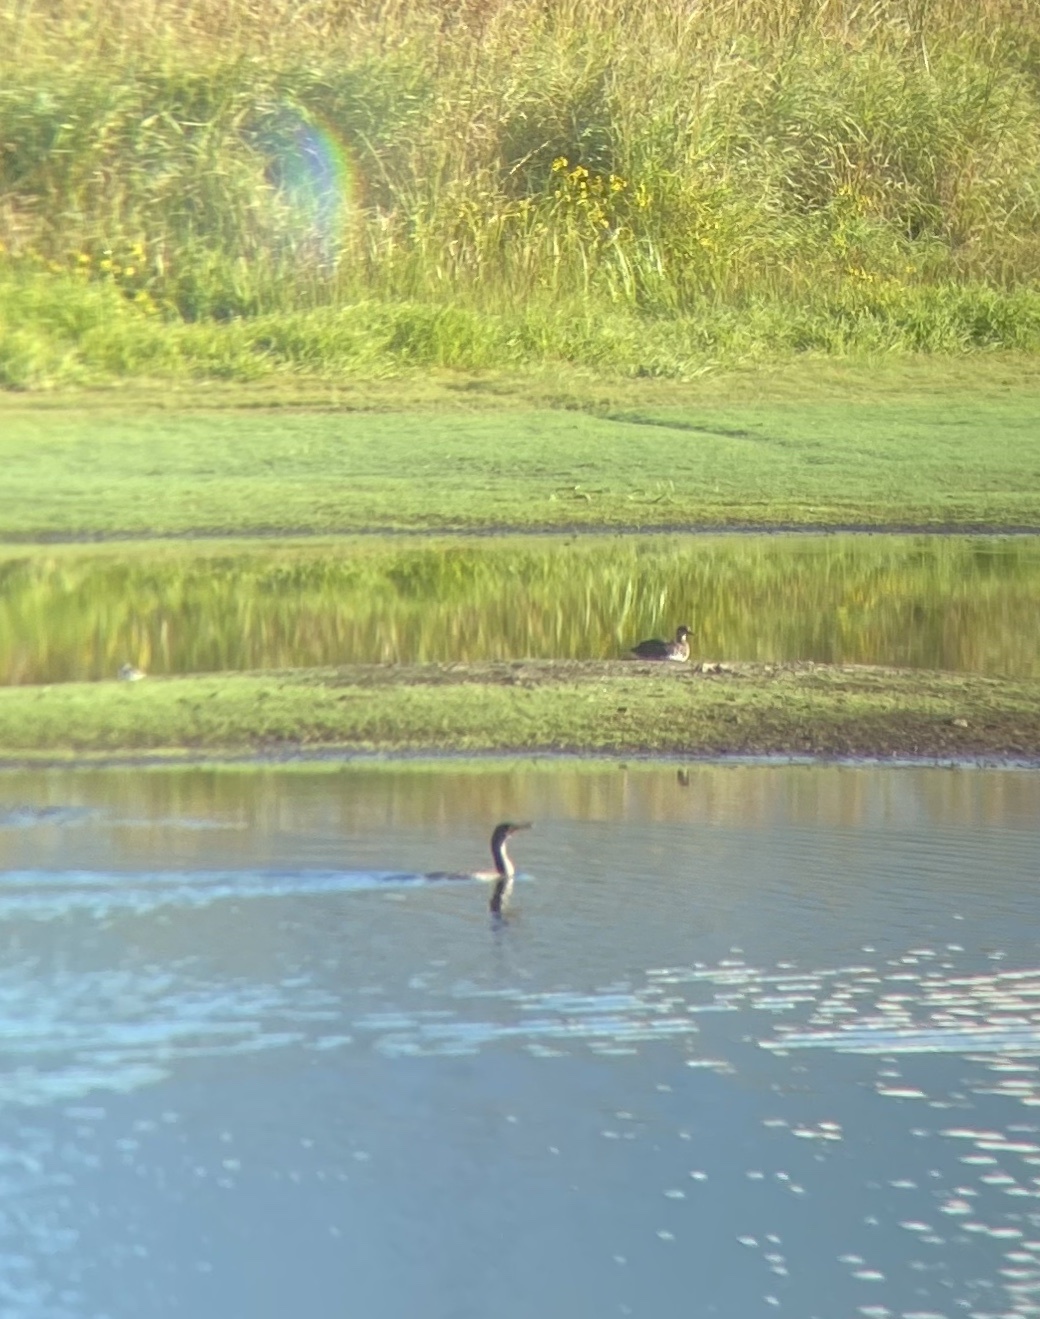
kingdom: Animalia
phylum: Chordata
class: Aves
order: Suliformes
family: Phalacrocoracidae
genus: Phalacrocorax
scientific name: Phalacrocorax auritus
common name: Double-crested cormorant
